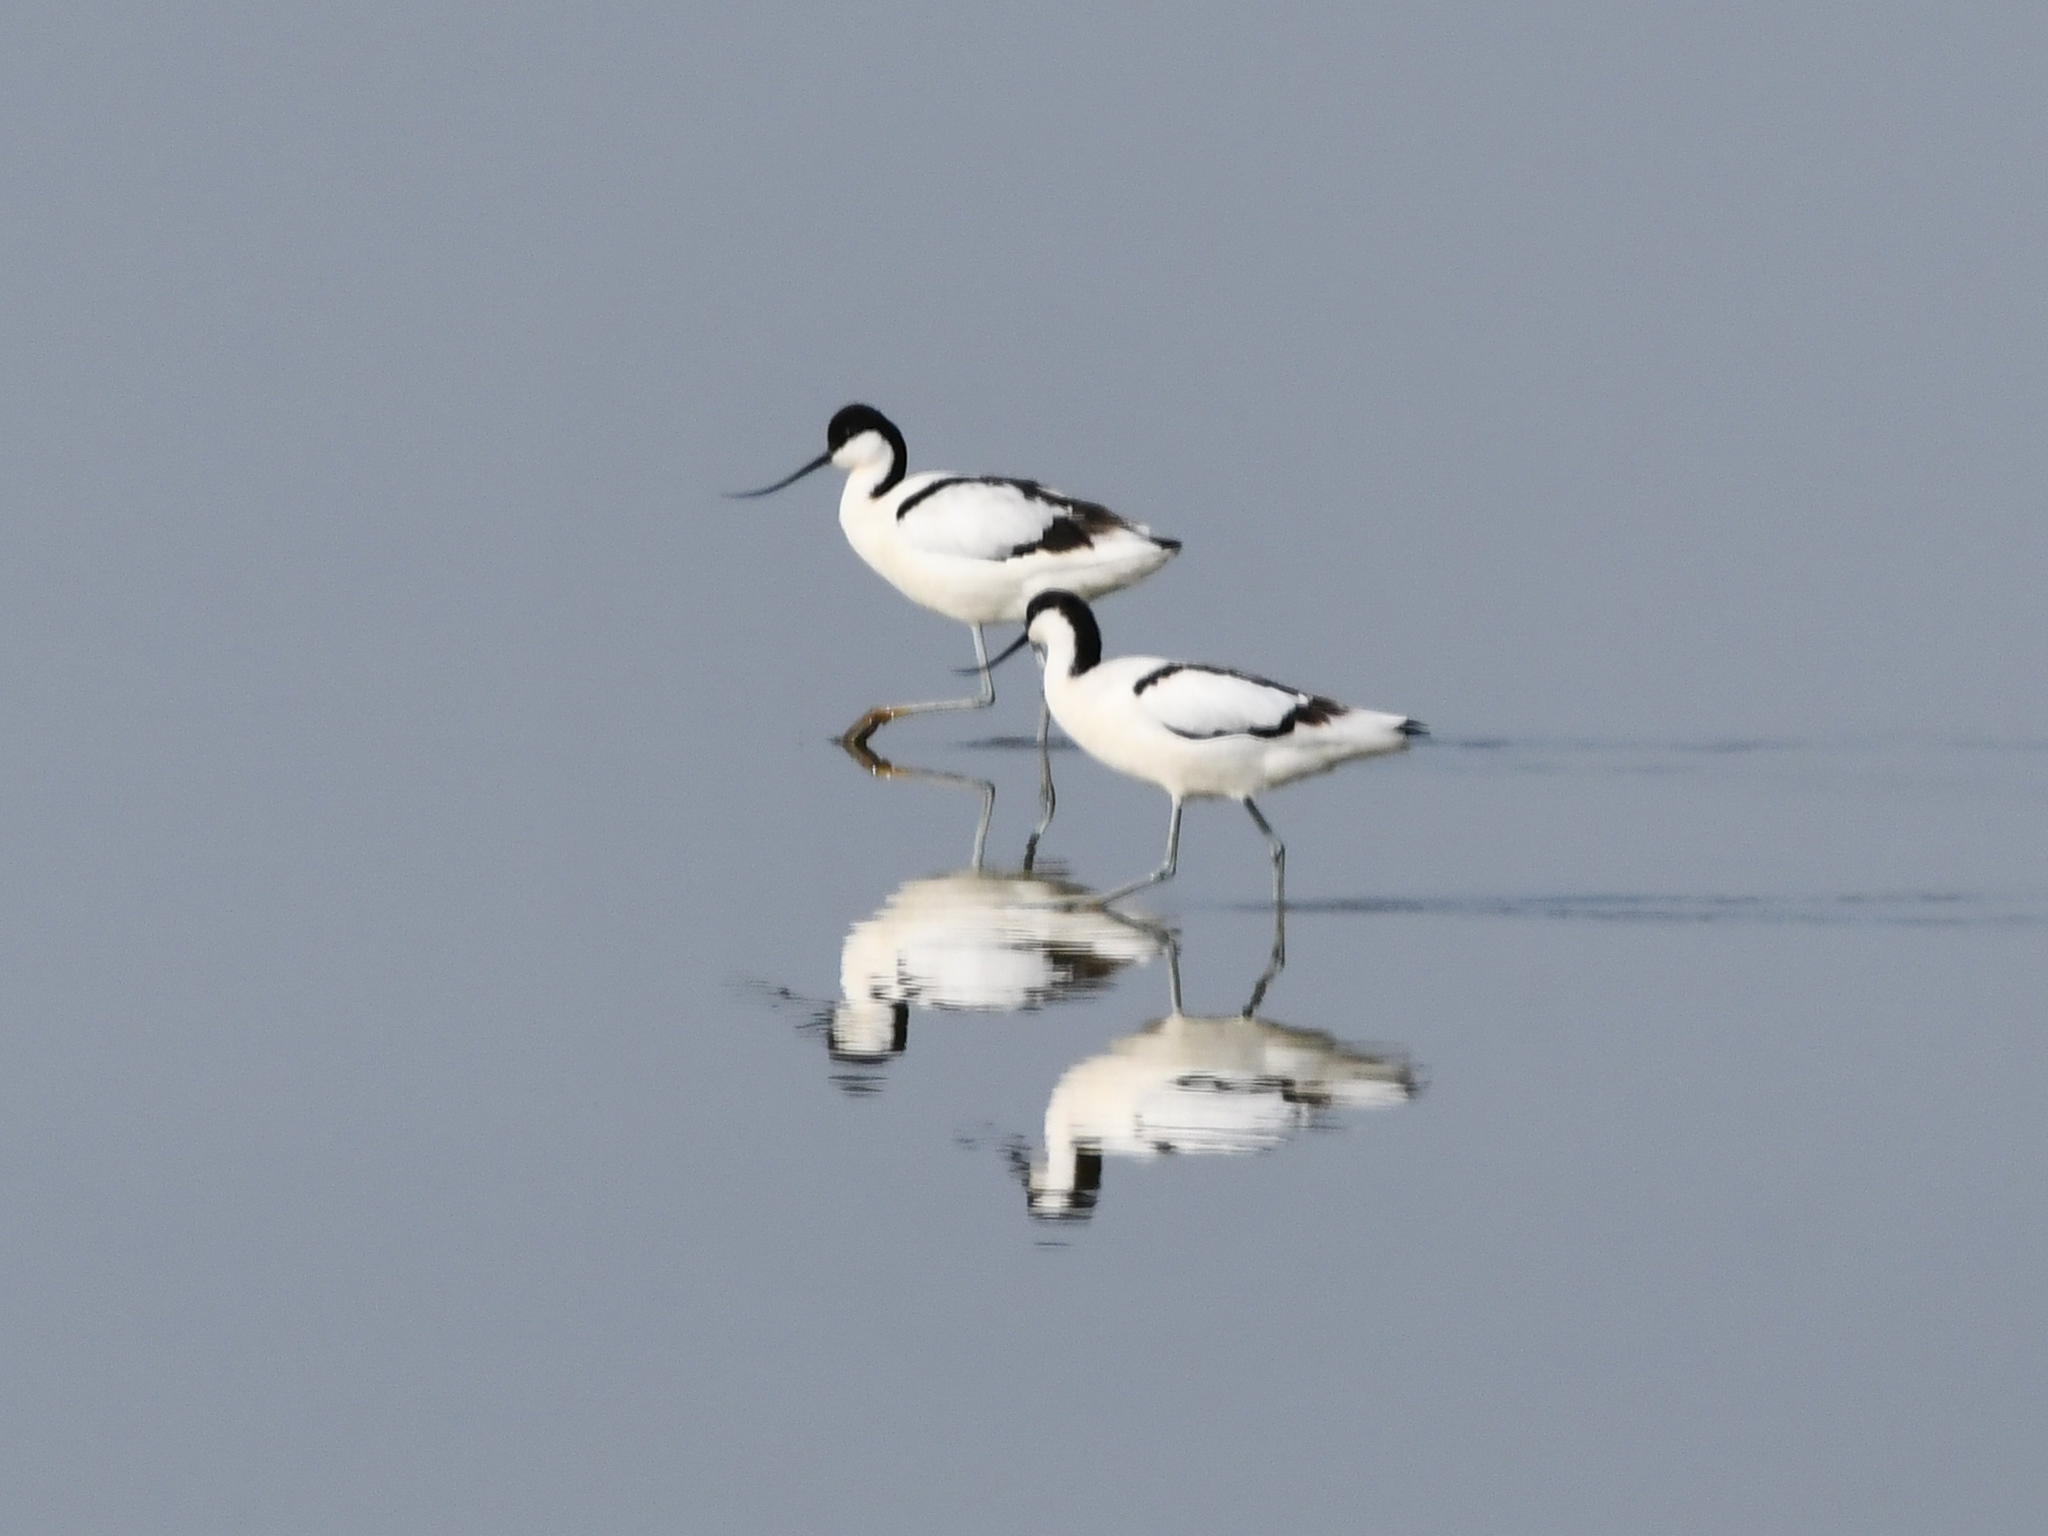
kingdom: Animalia
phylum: Chordata
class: Aves
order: Charadriiformes
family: Recurvirostridae
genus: Recurvirostra
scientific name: Recurvirostra avosetta
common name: Pied avocet
